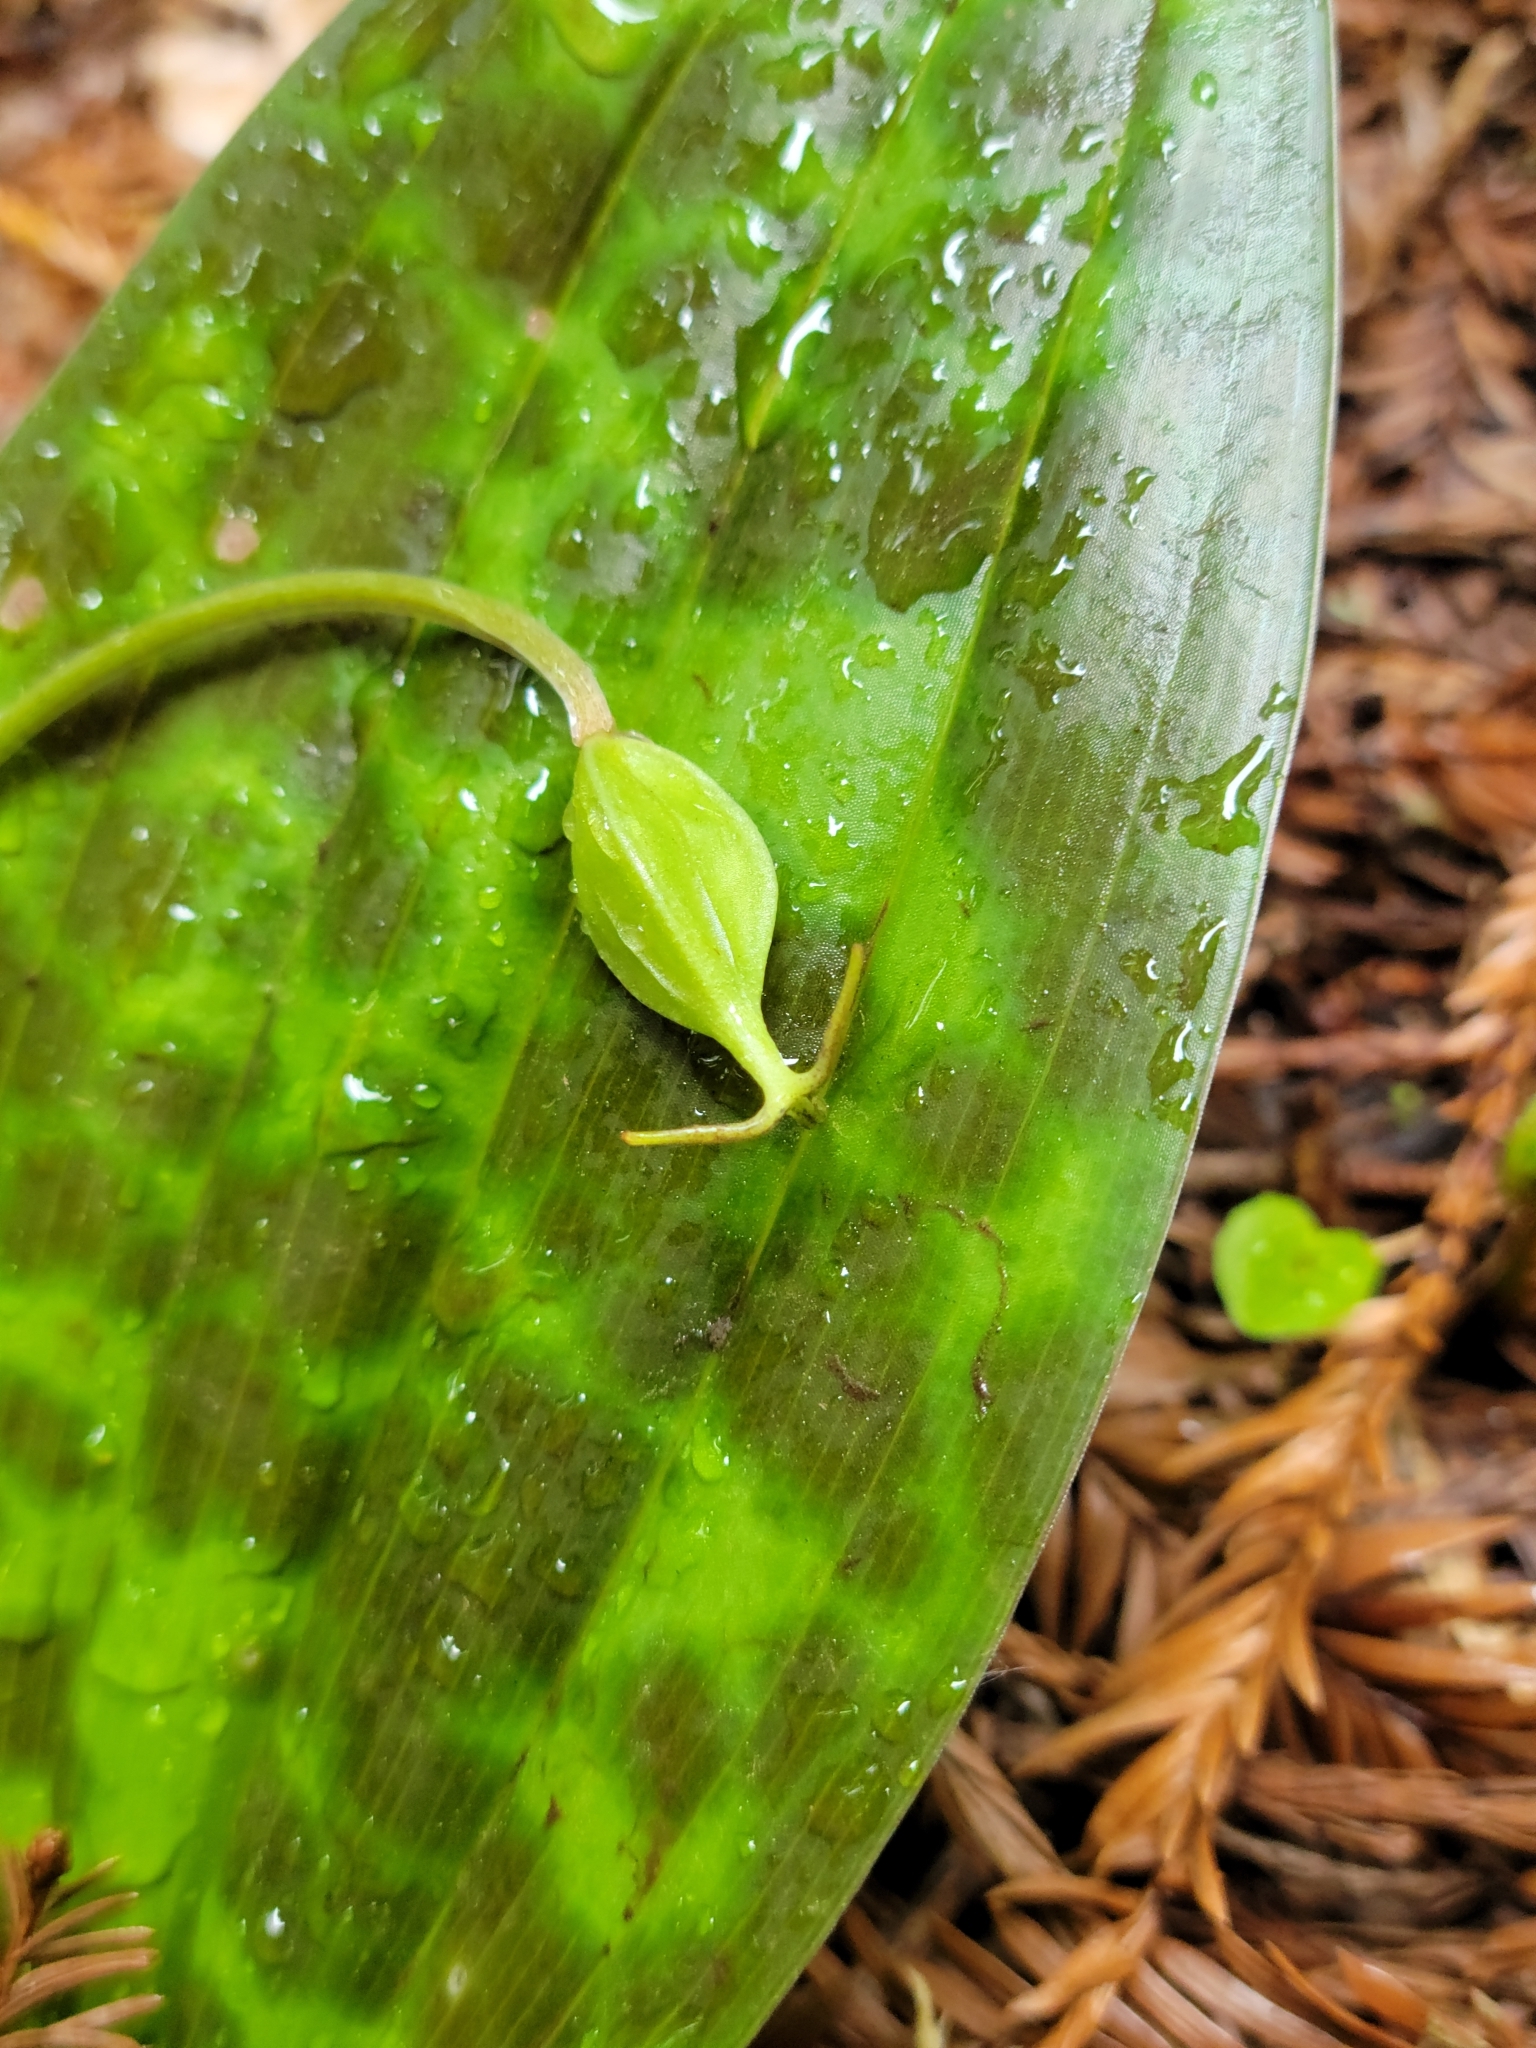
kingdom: Plantae
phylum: Tracheophyta
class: Liliopsida
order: Liliales
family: Liliaceae
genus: Scoliopus
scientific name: Scoliopus bigelovii
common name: Foetid adder's-tongue
